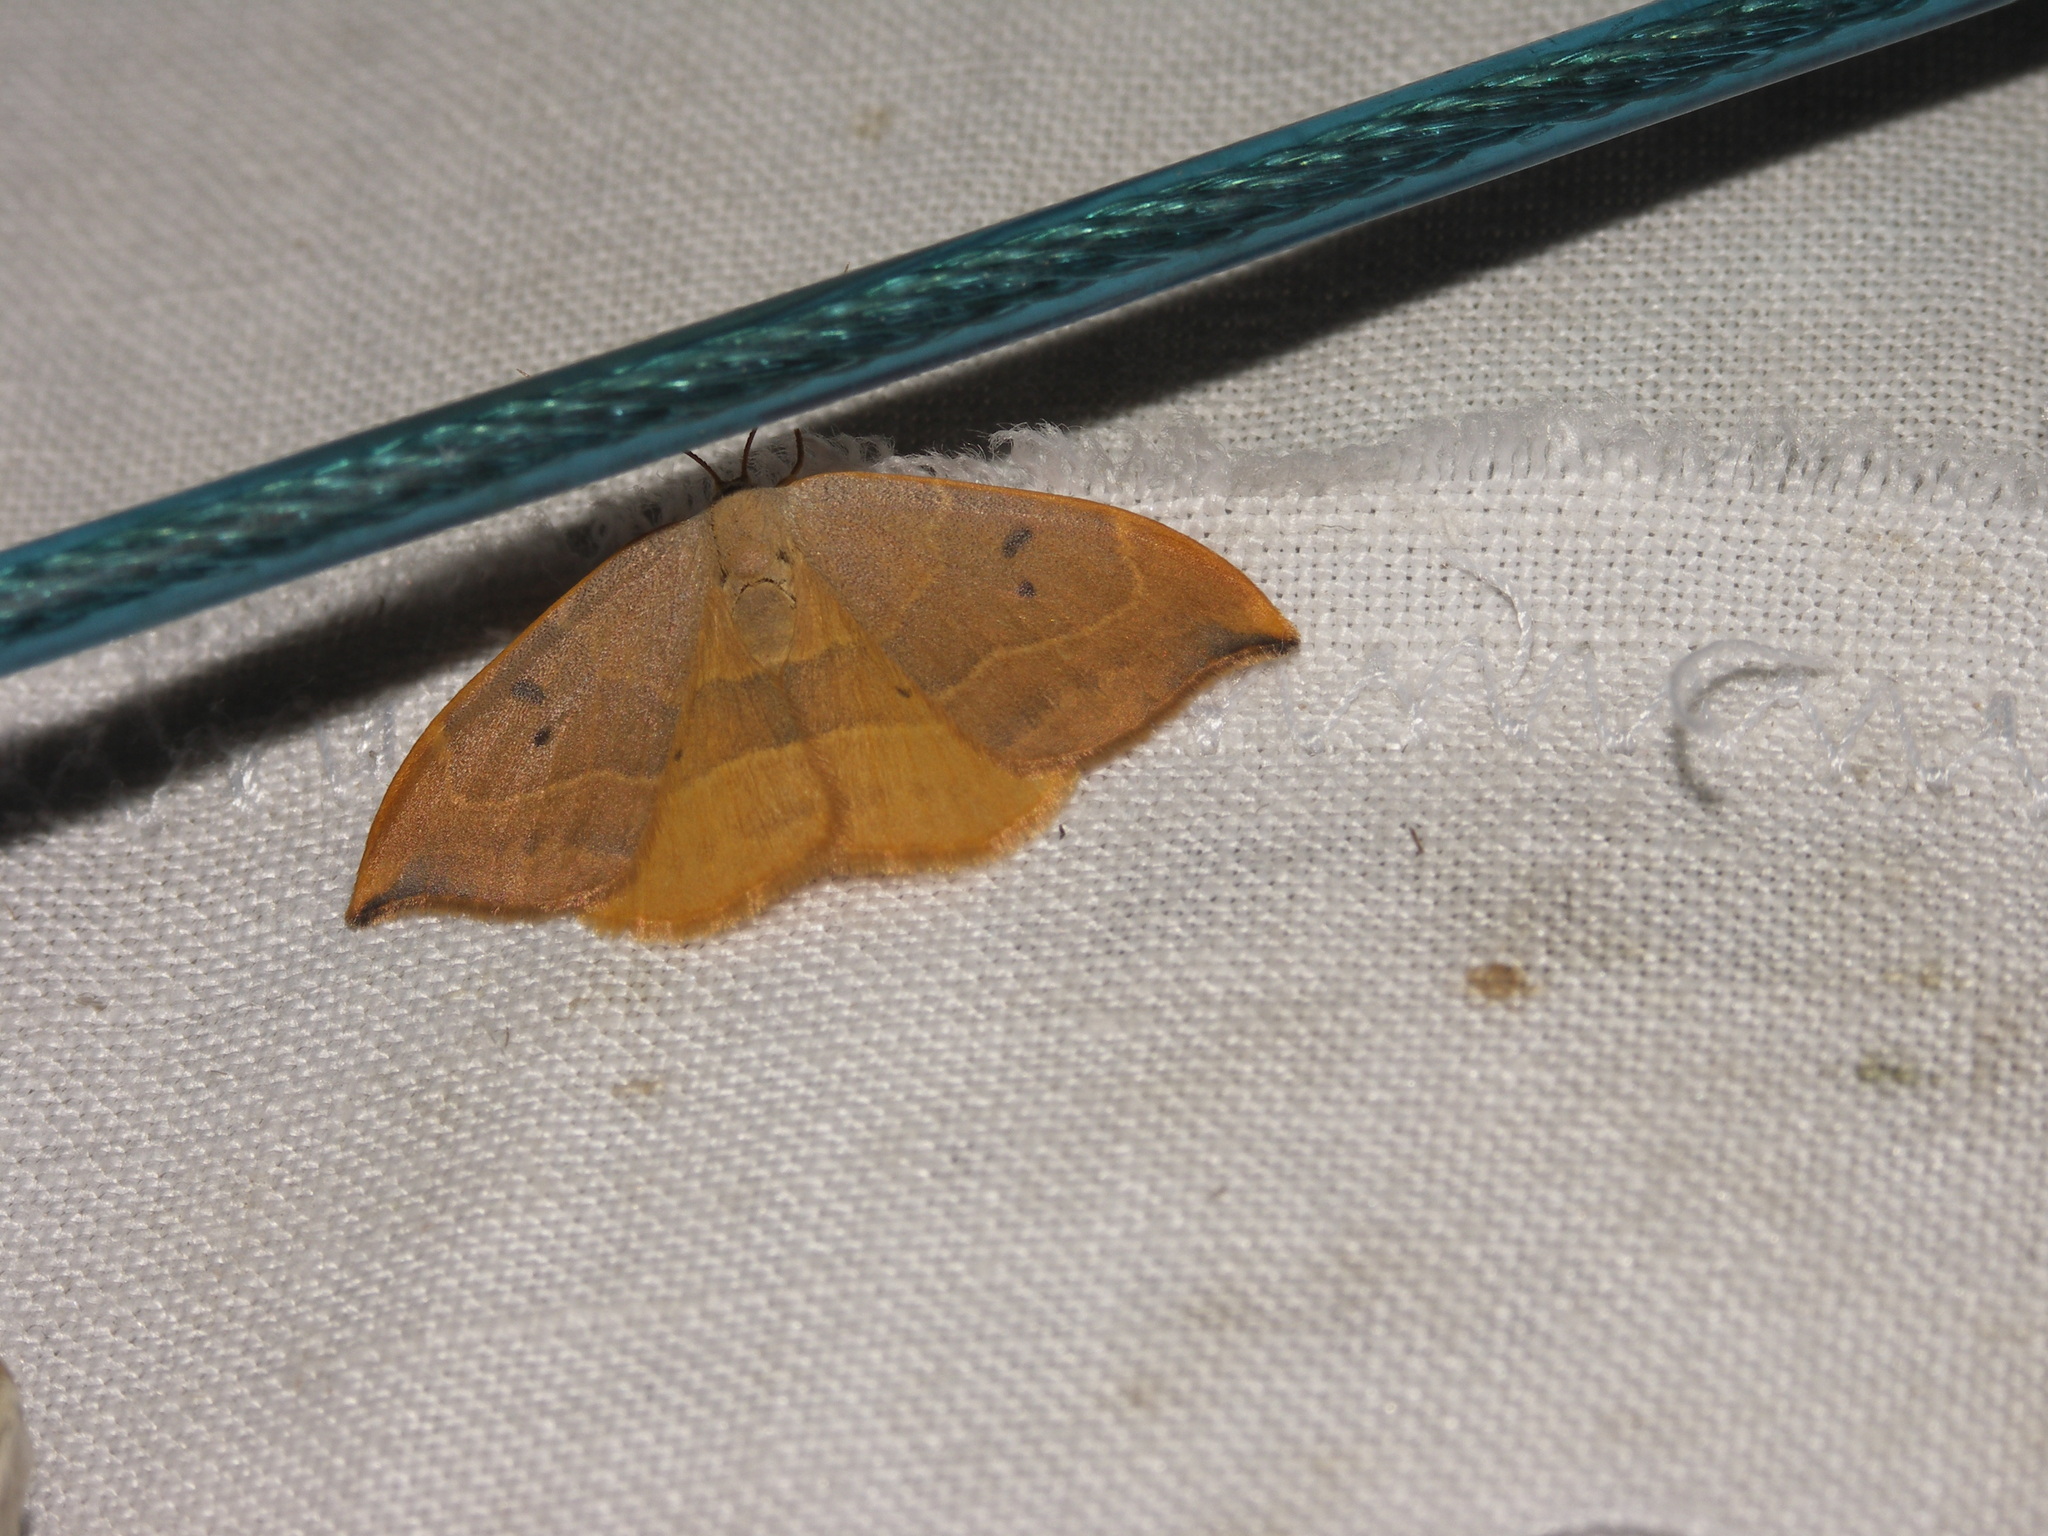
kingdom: Animalia
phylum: Arthropoda
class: Insecta
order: Lepidoptera
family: Drepanidae
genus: Watsonalla
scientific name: Watsonalla binaria
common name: Oak hook-tip
